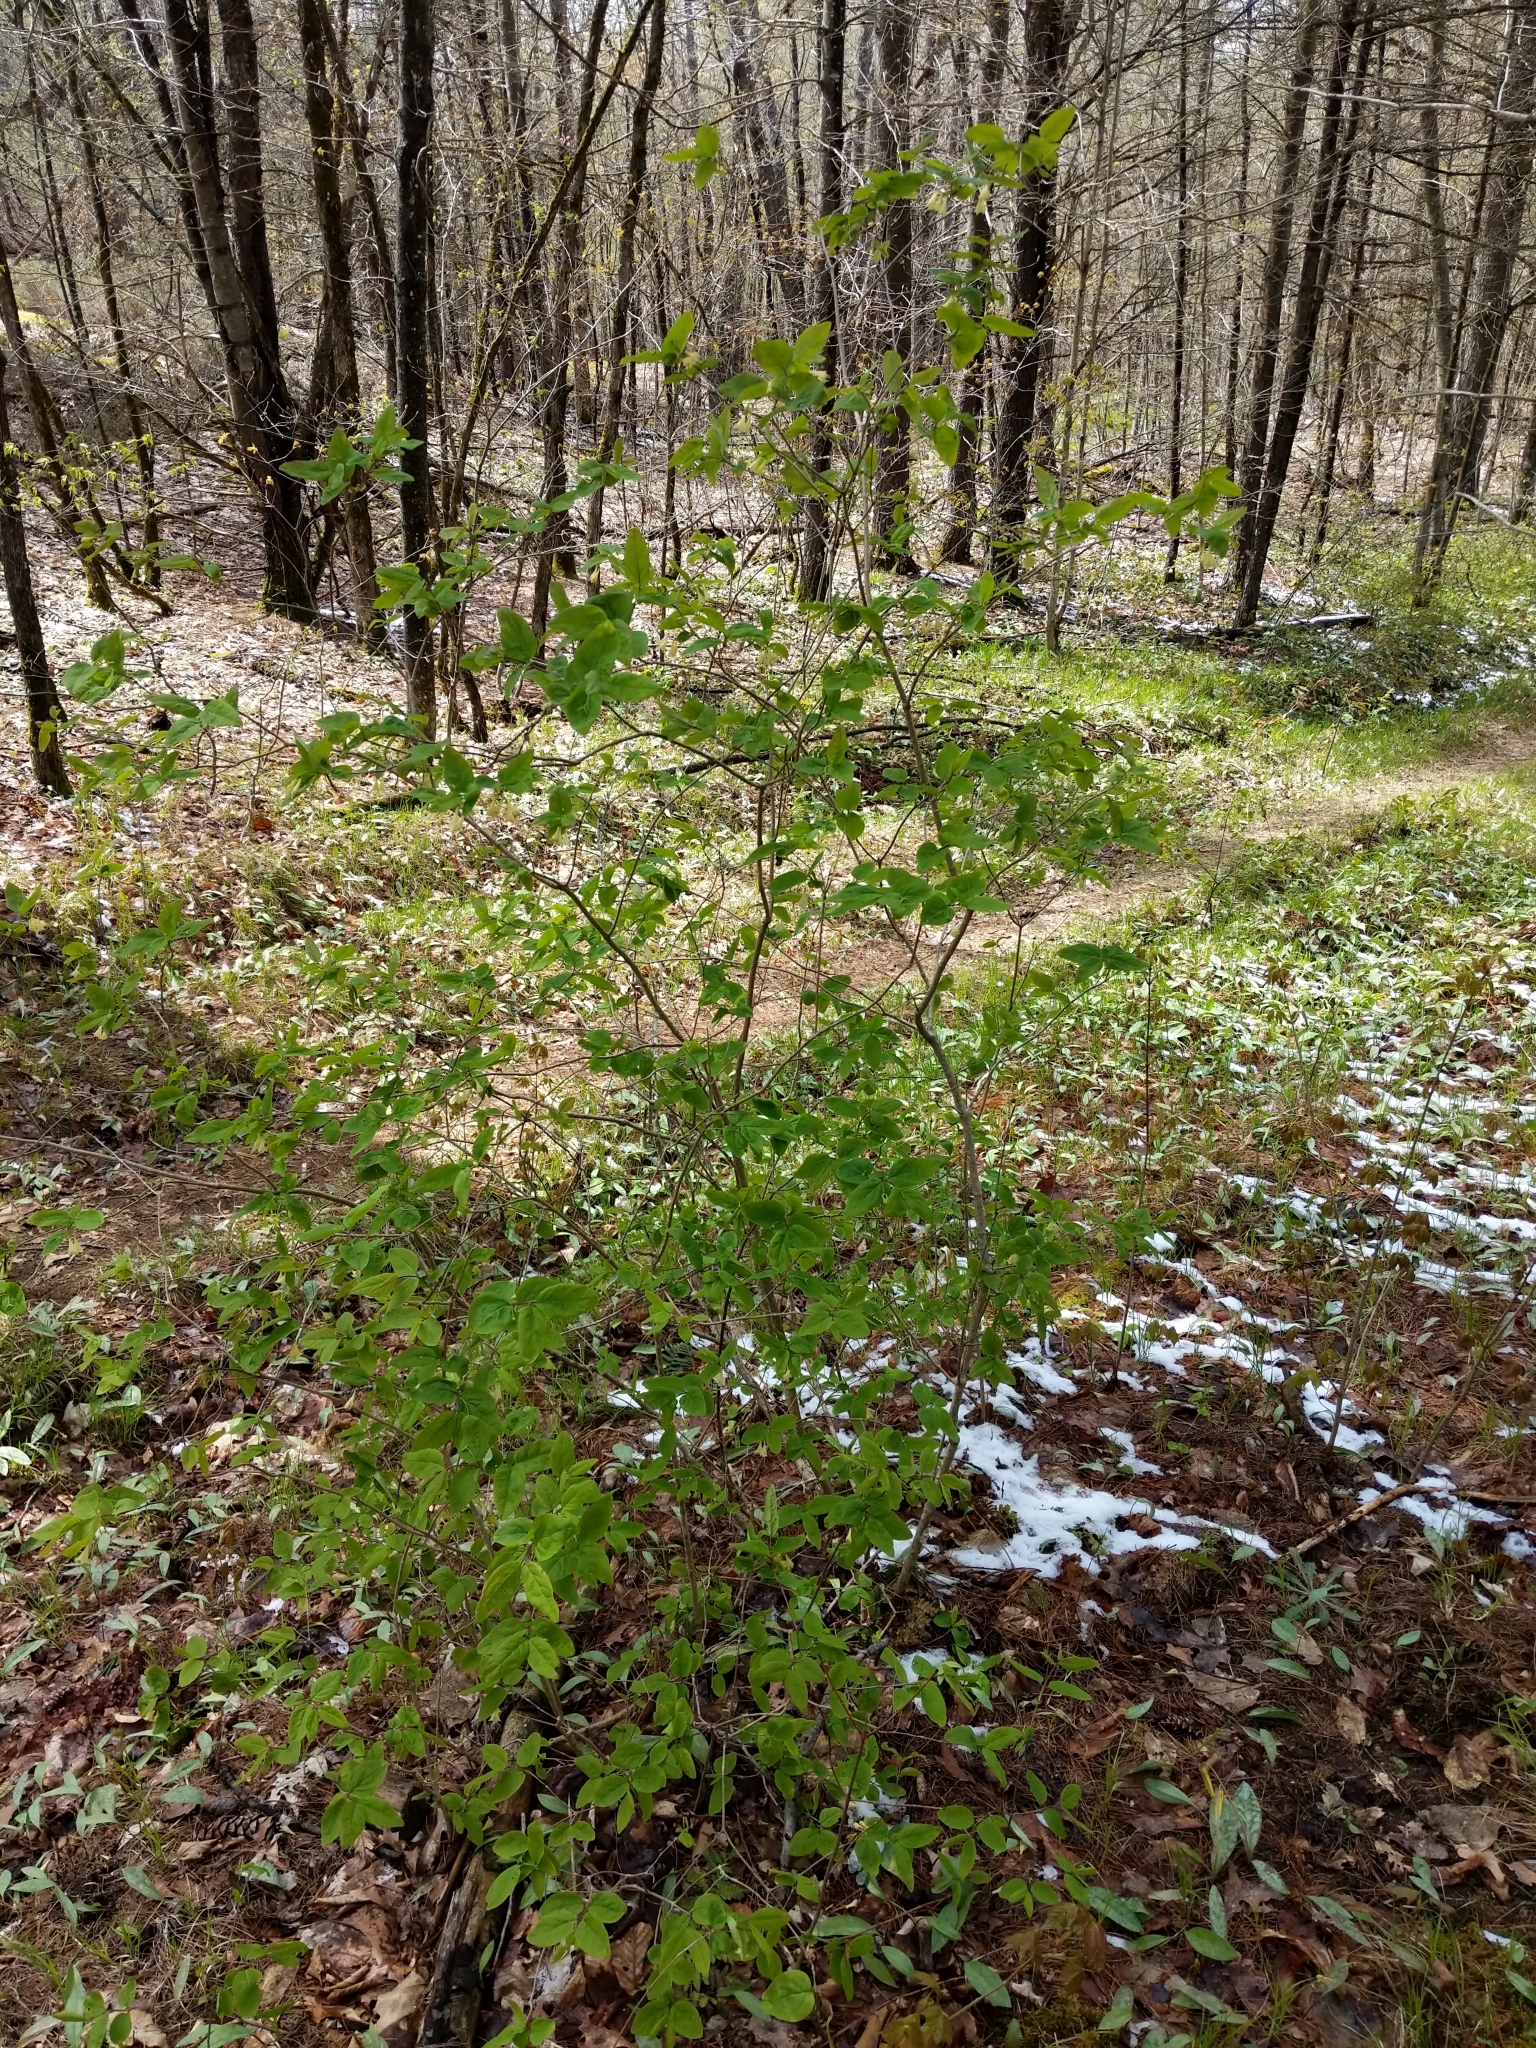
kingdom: Plantae
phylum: Tracheophyta
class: Magnoliopsida
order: Dipsacales
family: Caprifoliaceae
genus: Lonicera
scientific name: Lonicera canadensis
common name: American fly-honeysuckle
